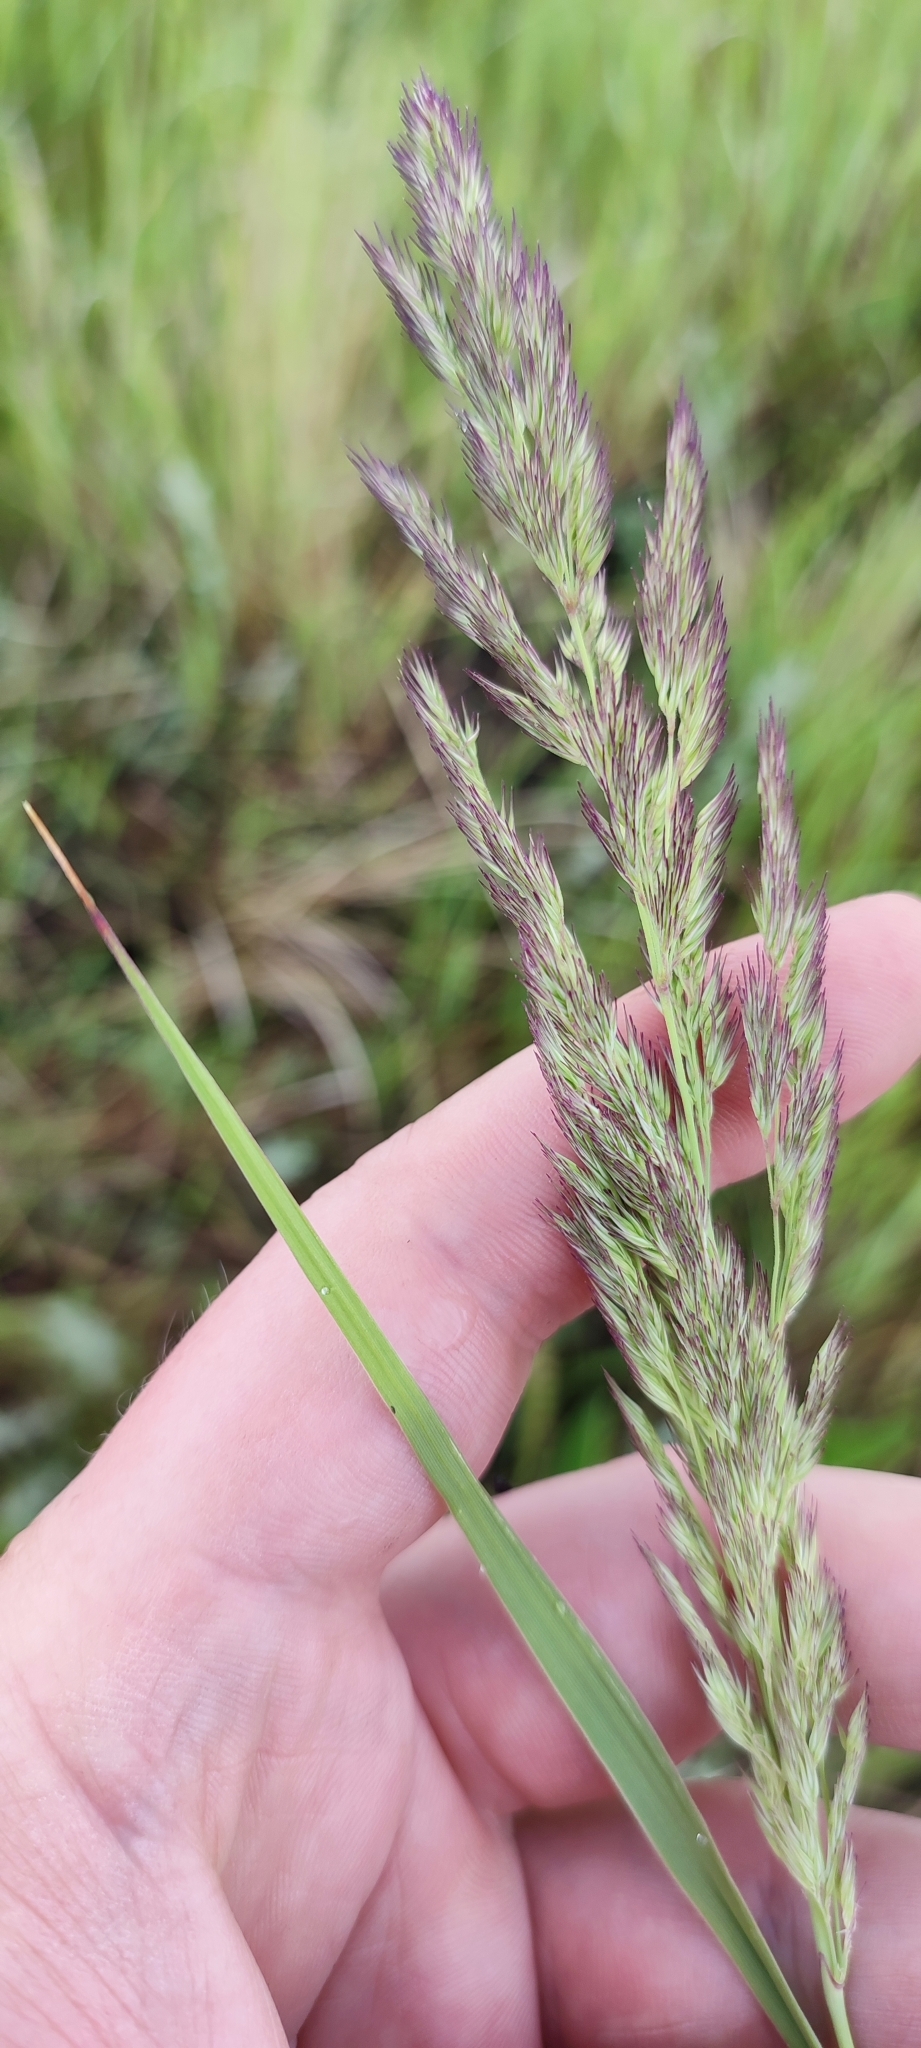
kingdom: Plantae
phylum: Tracheophyta
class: Liliopsida
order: Poales
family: Poaceae
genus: Calamagrostis
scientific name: Calamagrostis epigejos
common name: Wood small-reed
